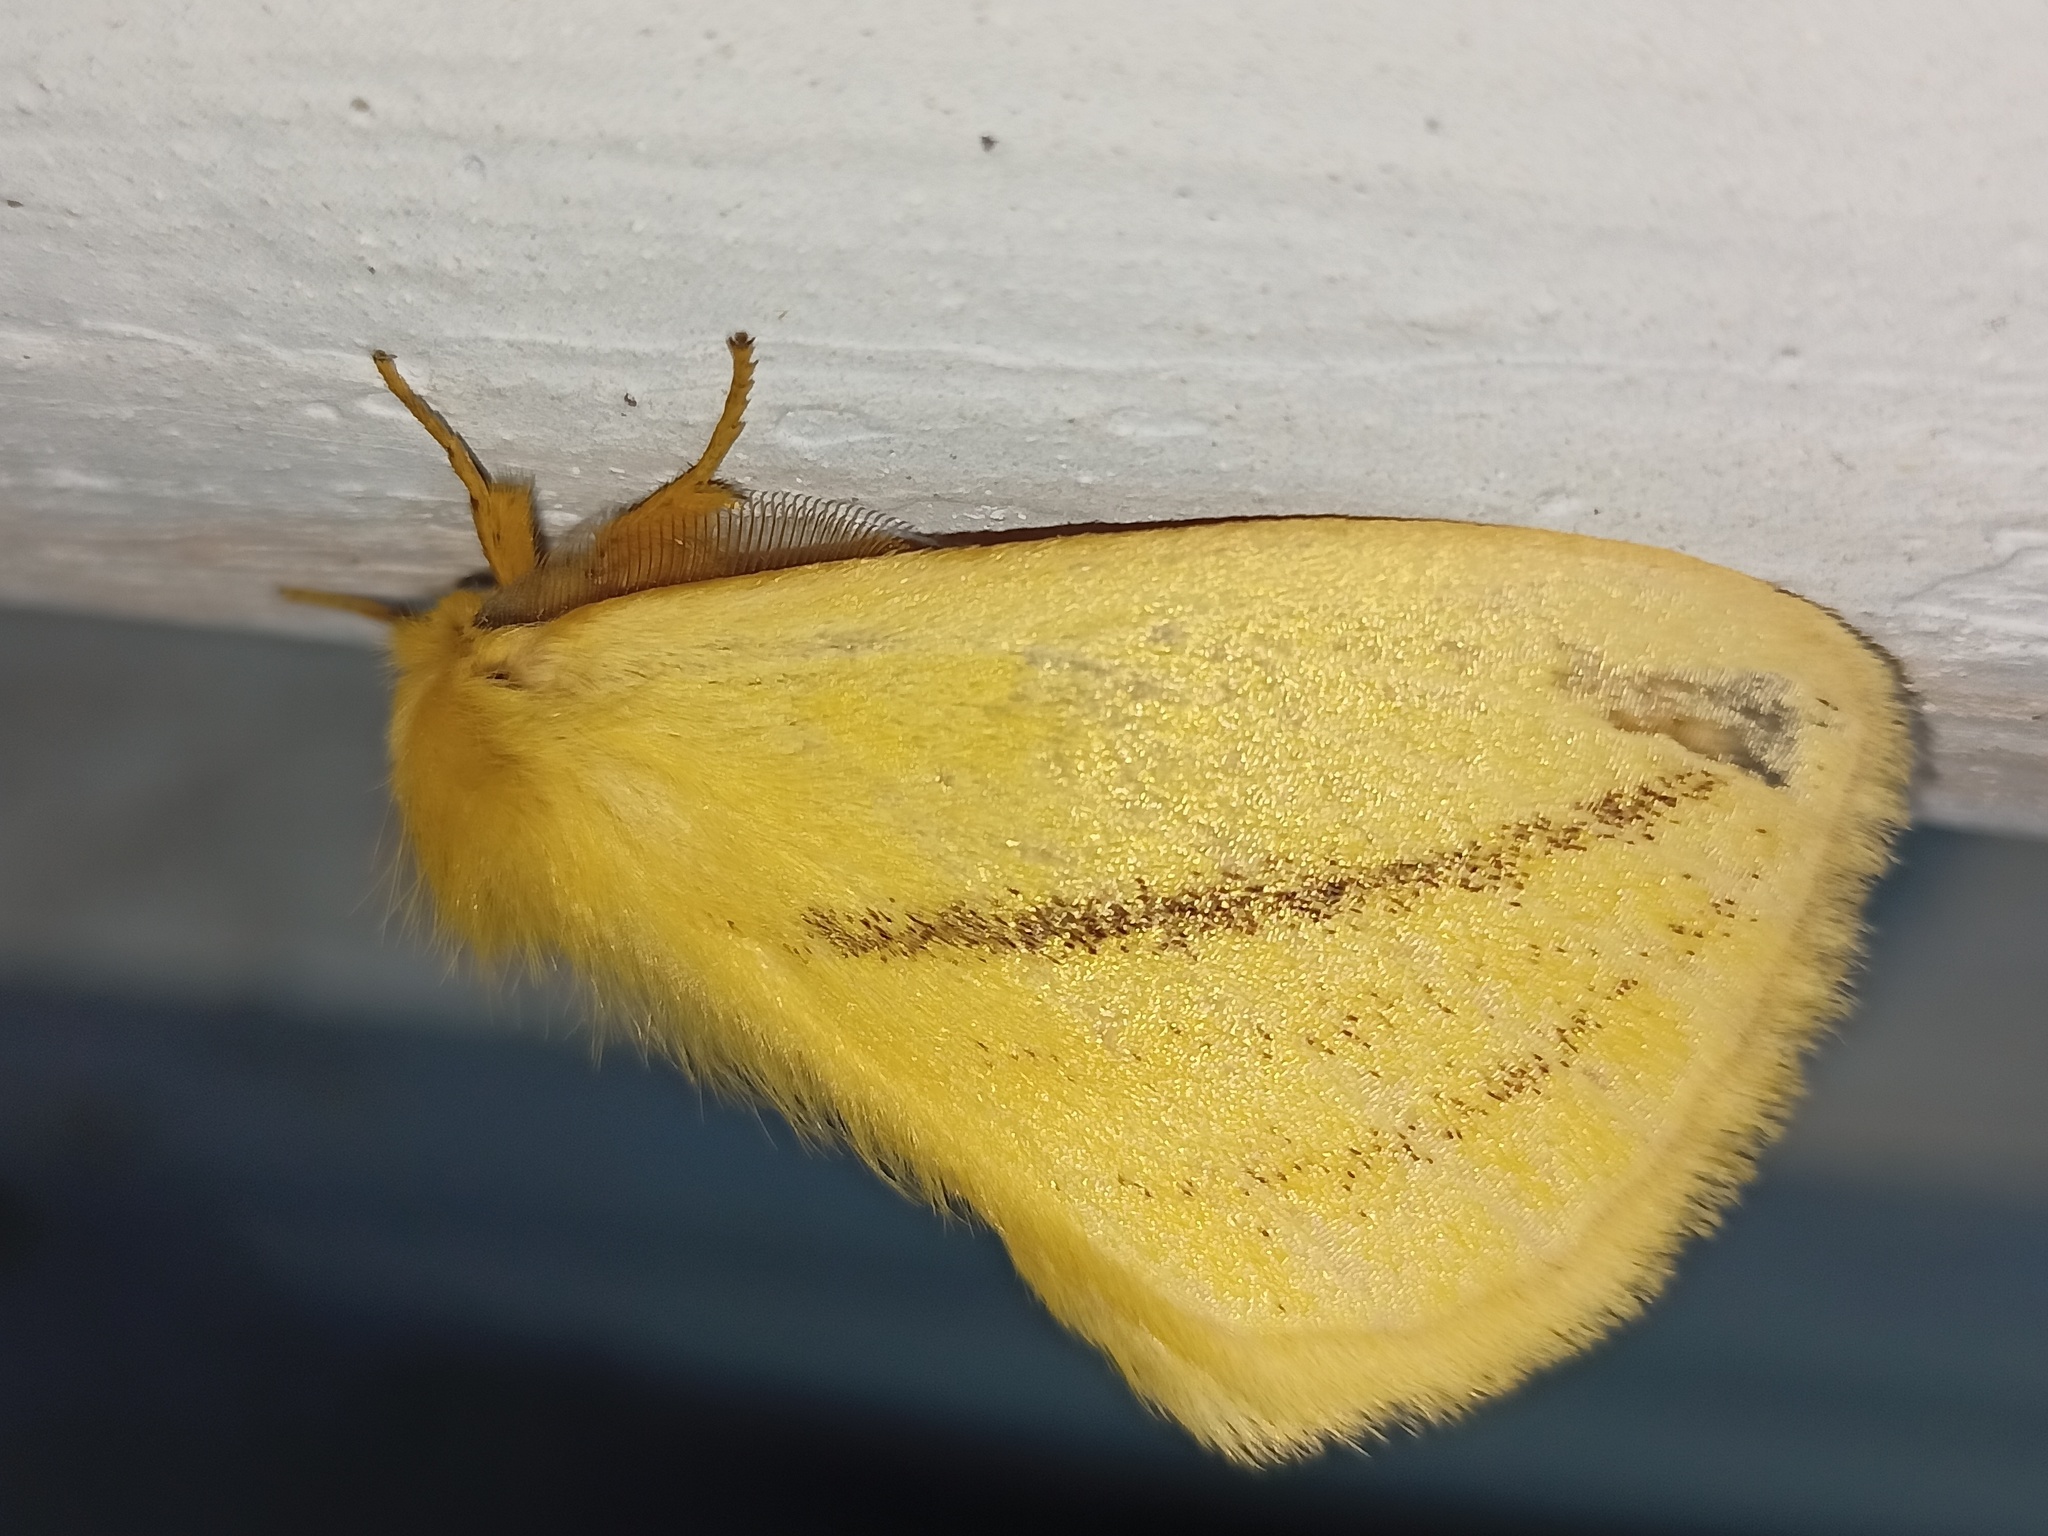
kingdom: Animalia
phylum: Arthropoda
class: Insecta
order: Lepidoptera
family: Eupterotidae
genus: Sangatissa
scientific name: Sangatissa subcurvifera
